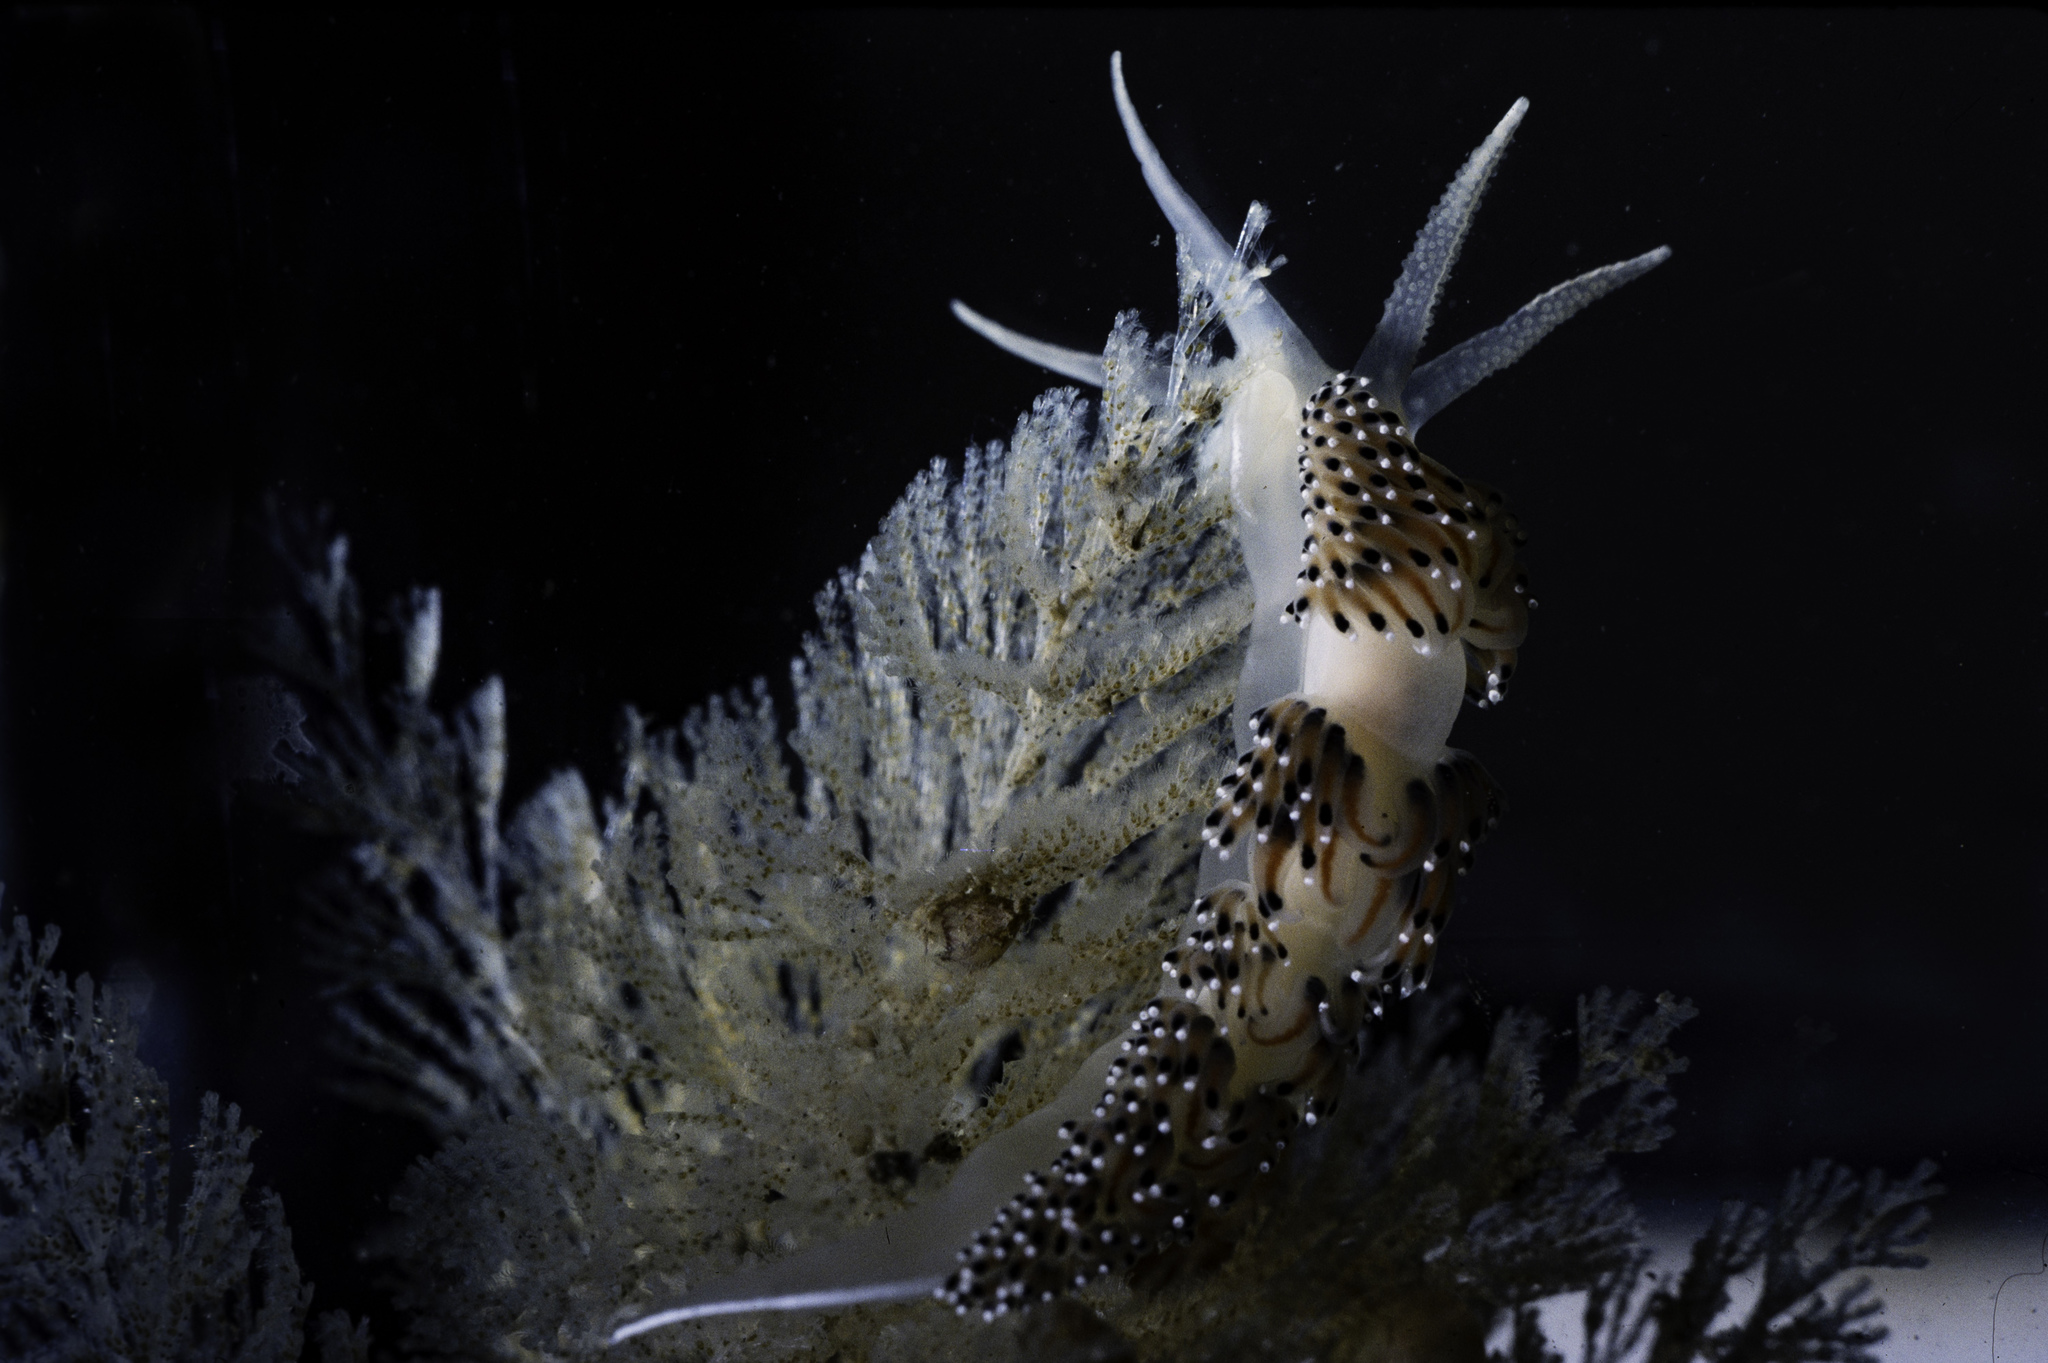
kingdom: Animalia
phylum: Mollusca
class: Gastropoda
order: Nudibranchia
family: Facelinidae
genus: Caloria
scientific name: Caloria elegans
